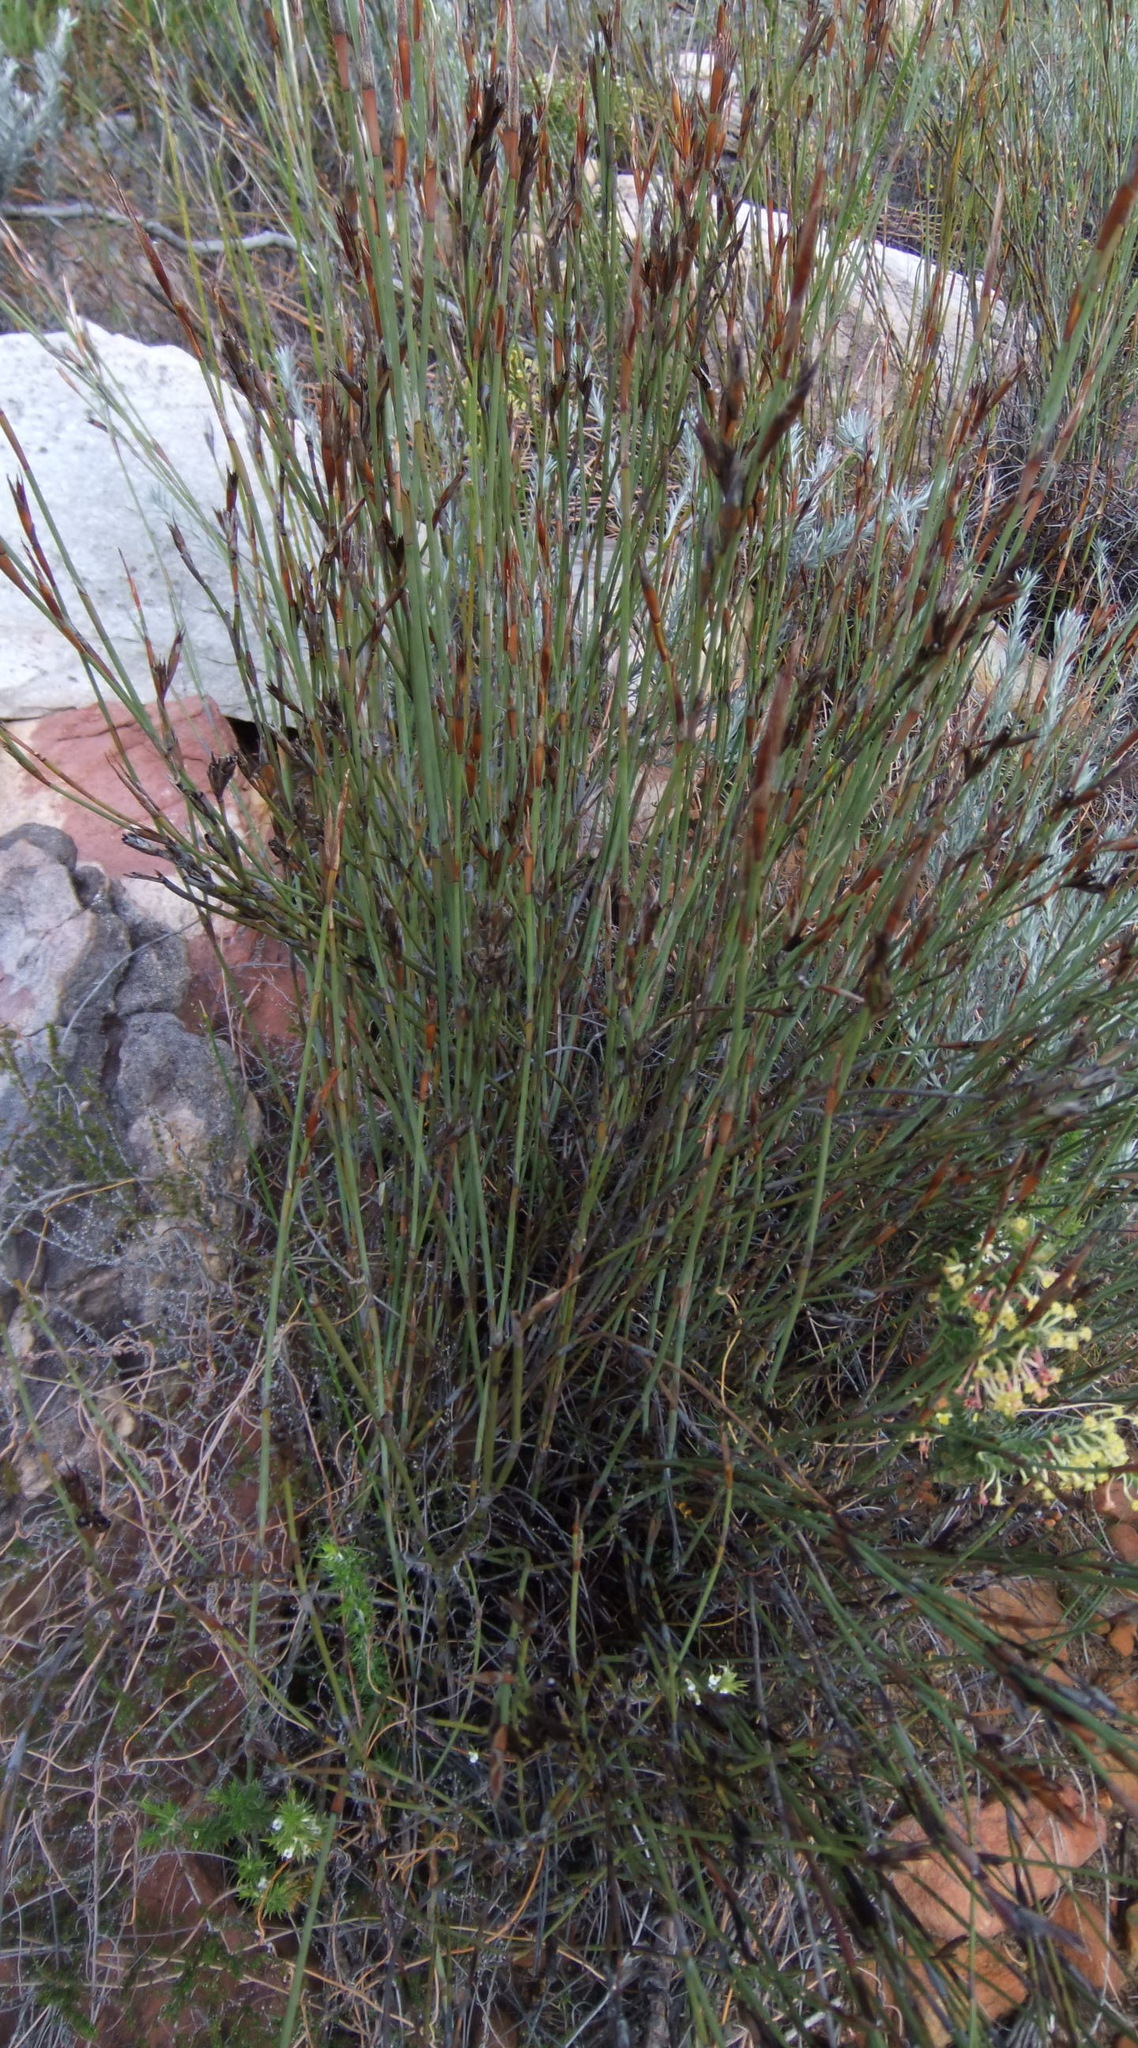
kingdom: Plantae
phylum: Tracheophyta
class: Liliopsida
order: Poales
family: Restionaceae
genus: Willdenowia
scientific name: Willdenowia teres
